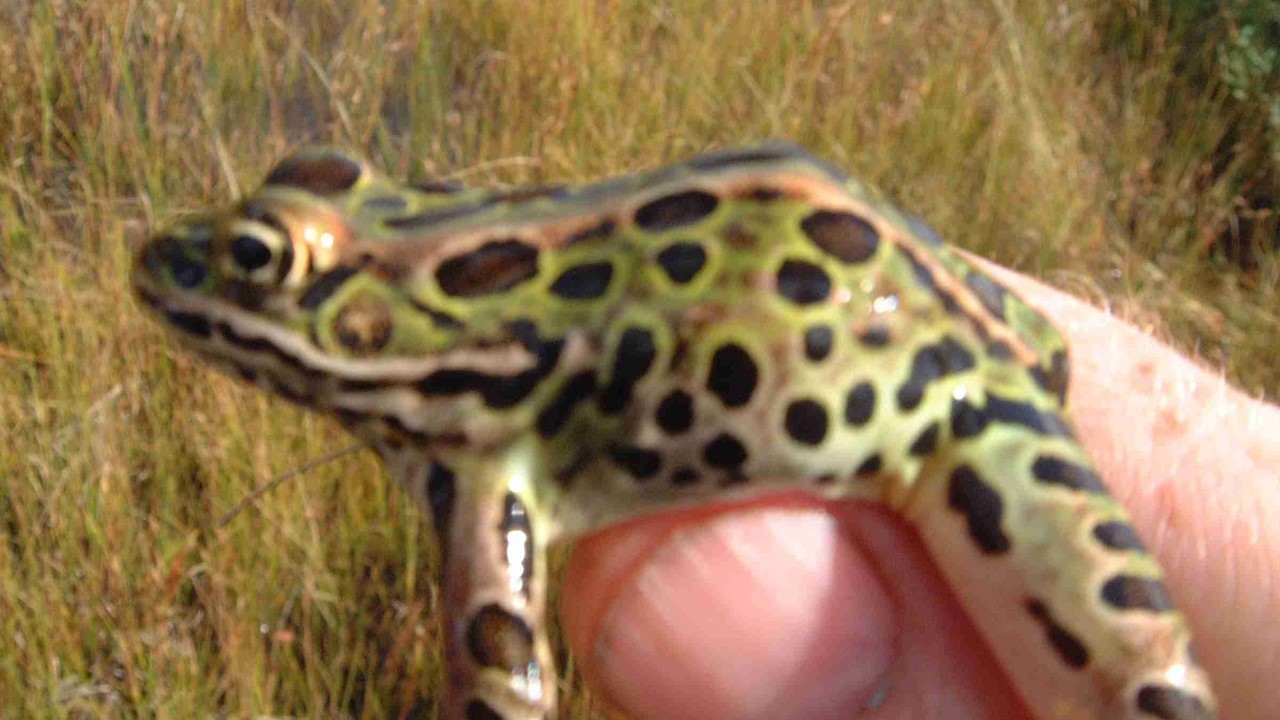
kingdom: Animalia
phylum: Chordata
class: Amphibia
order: Anura
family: Ranidae
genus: Lithobates
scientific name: Lithobates pipiens
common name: Northern leopard frog
